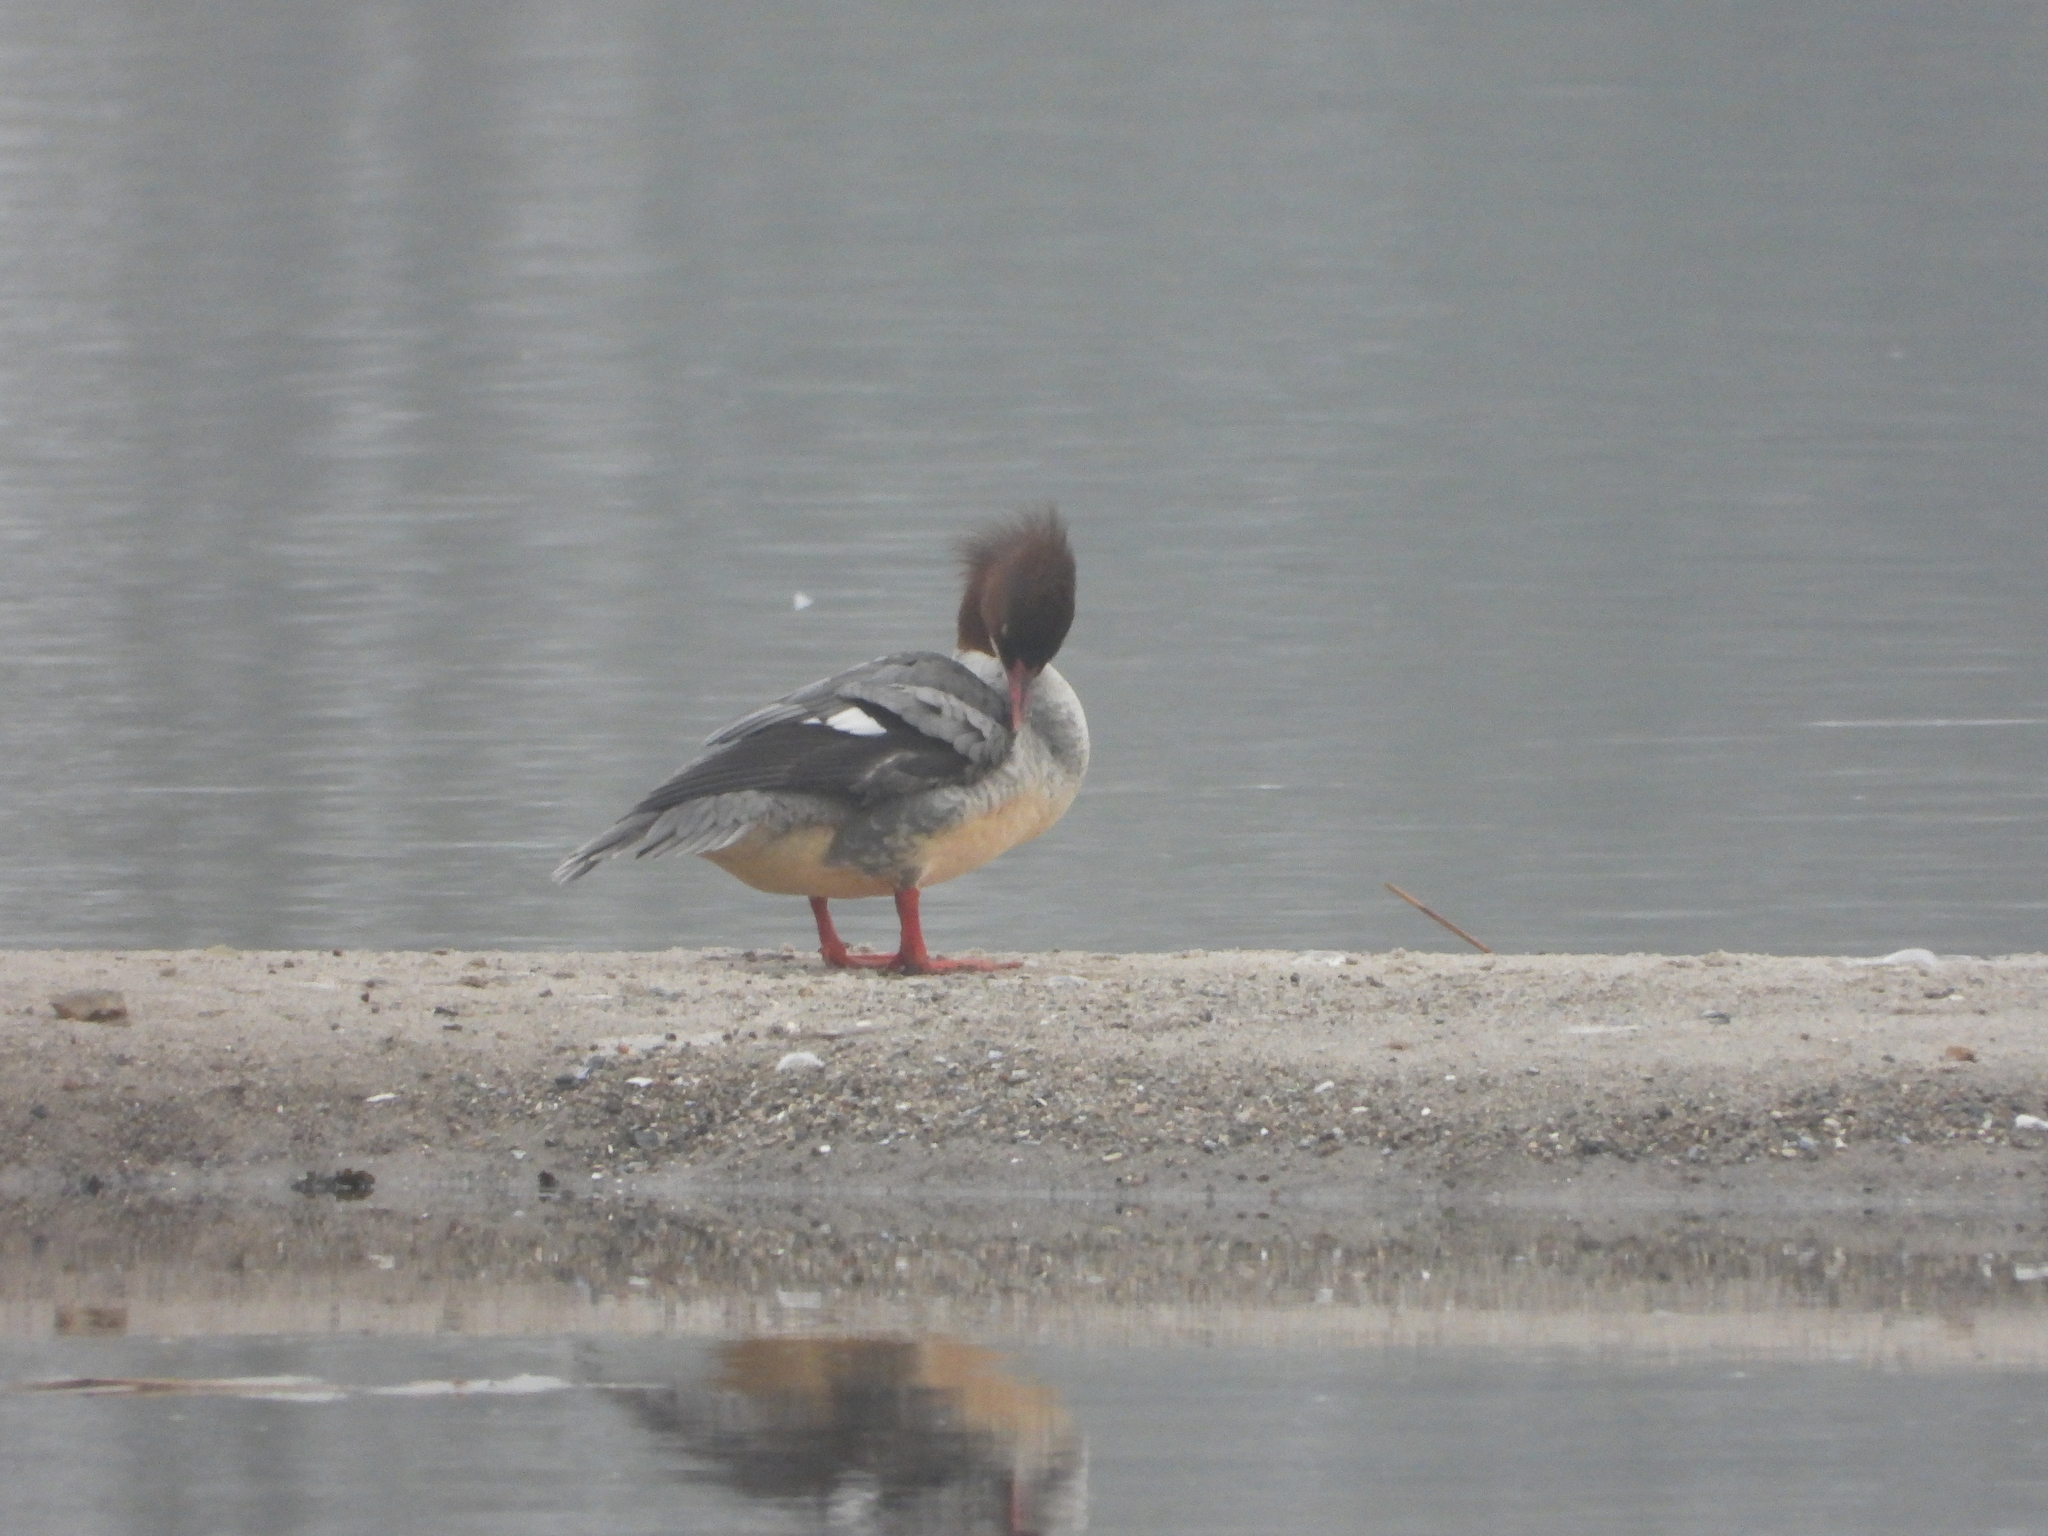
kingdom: Animalia
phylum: Chordata
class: Aves
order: Anseriformes
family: Anatidae
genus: Mergus
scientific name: Mergus merganser
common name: Common merganser
